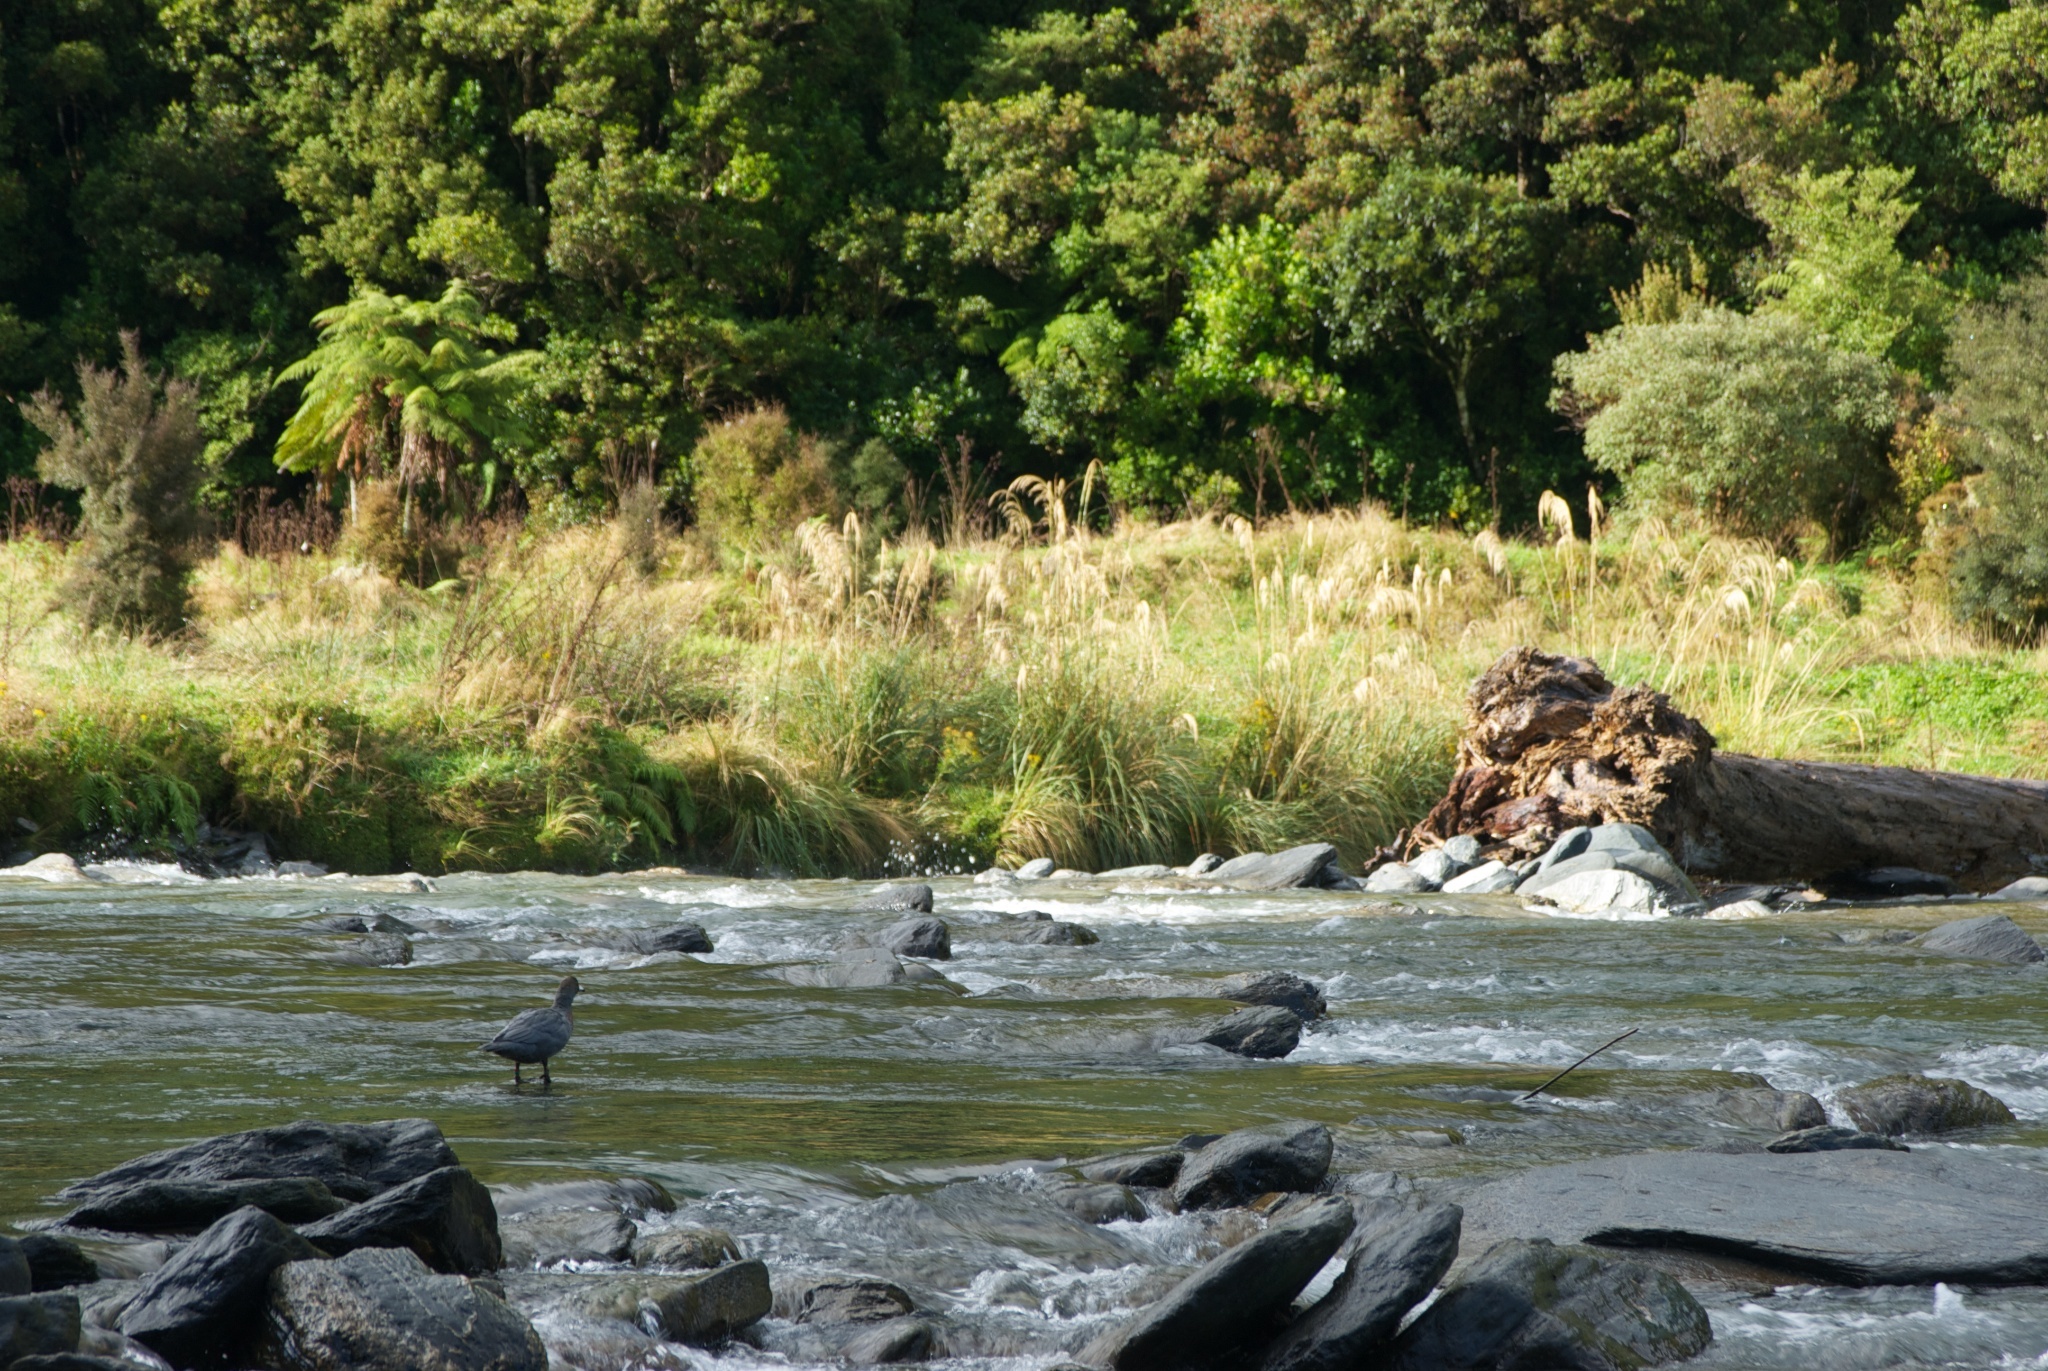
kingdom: Animalia
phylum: Chordata
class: Aves
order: Anseriformes
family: Anatidae
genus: Hymenolaimus
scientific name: Hymenolaimus malacorhynchos
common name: Blue duck
